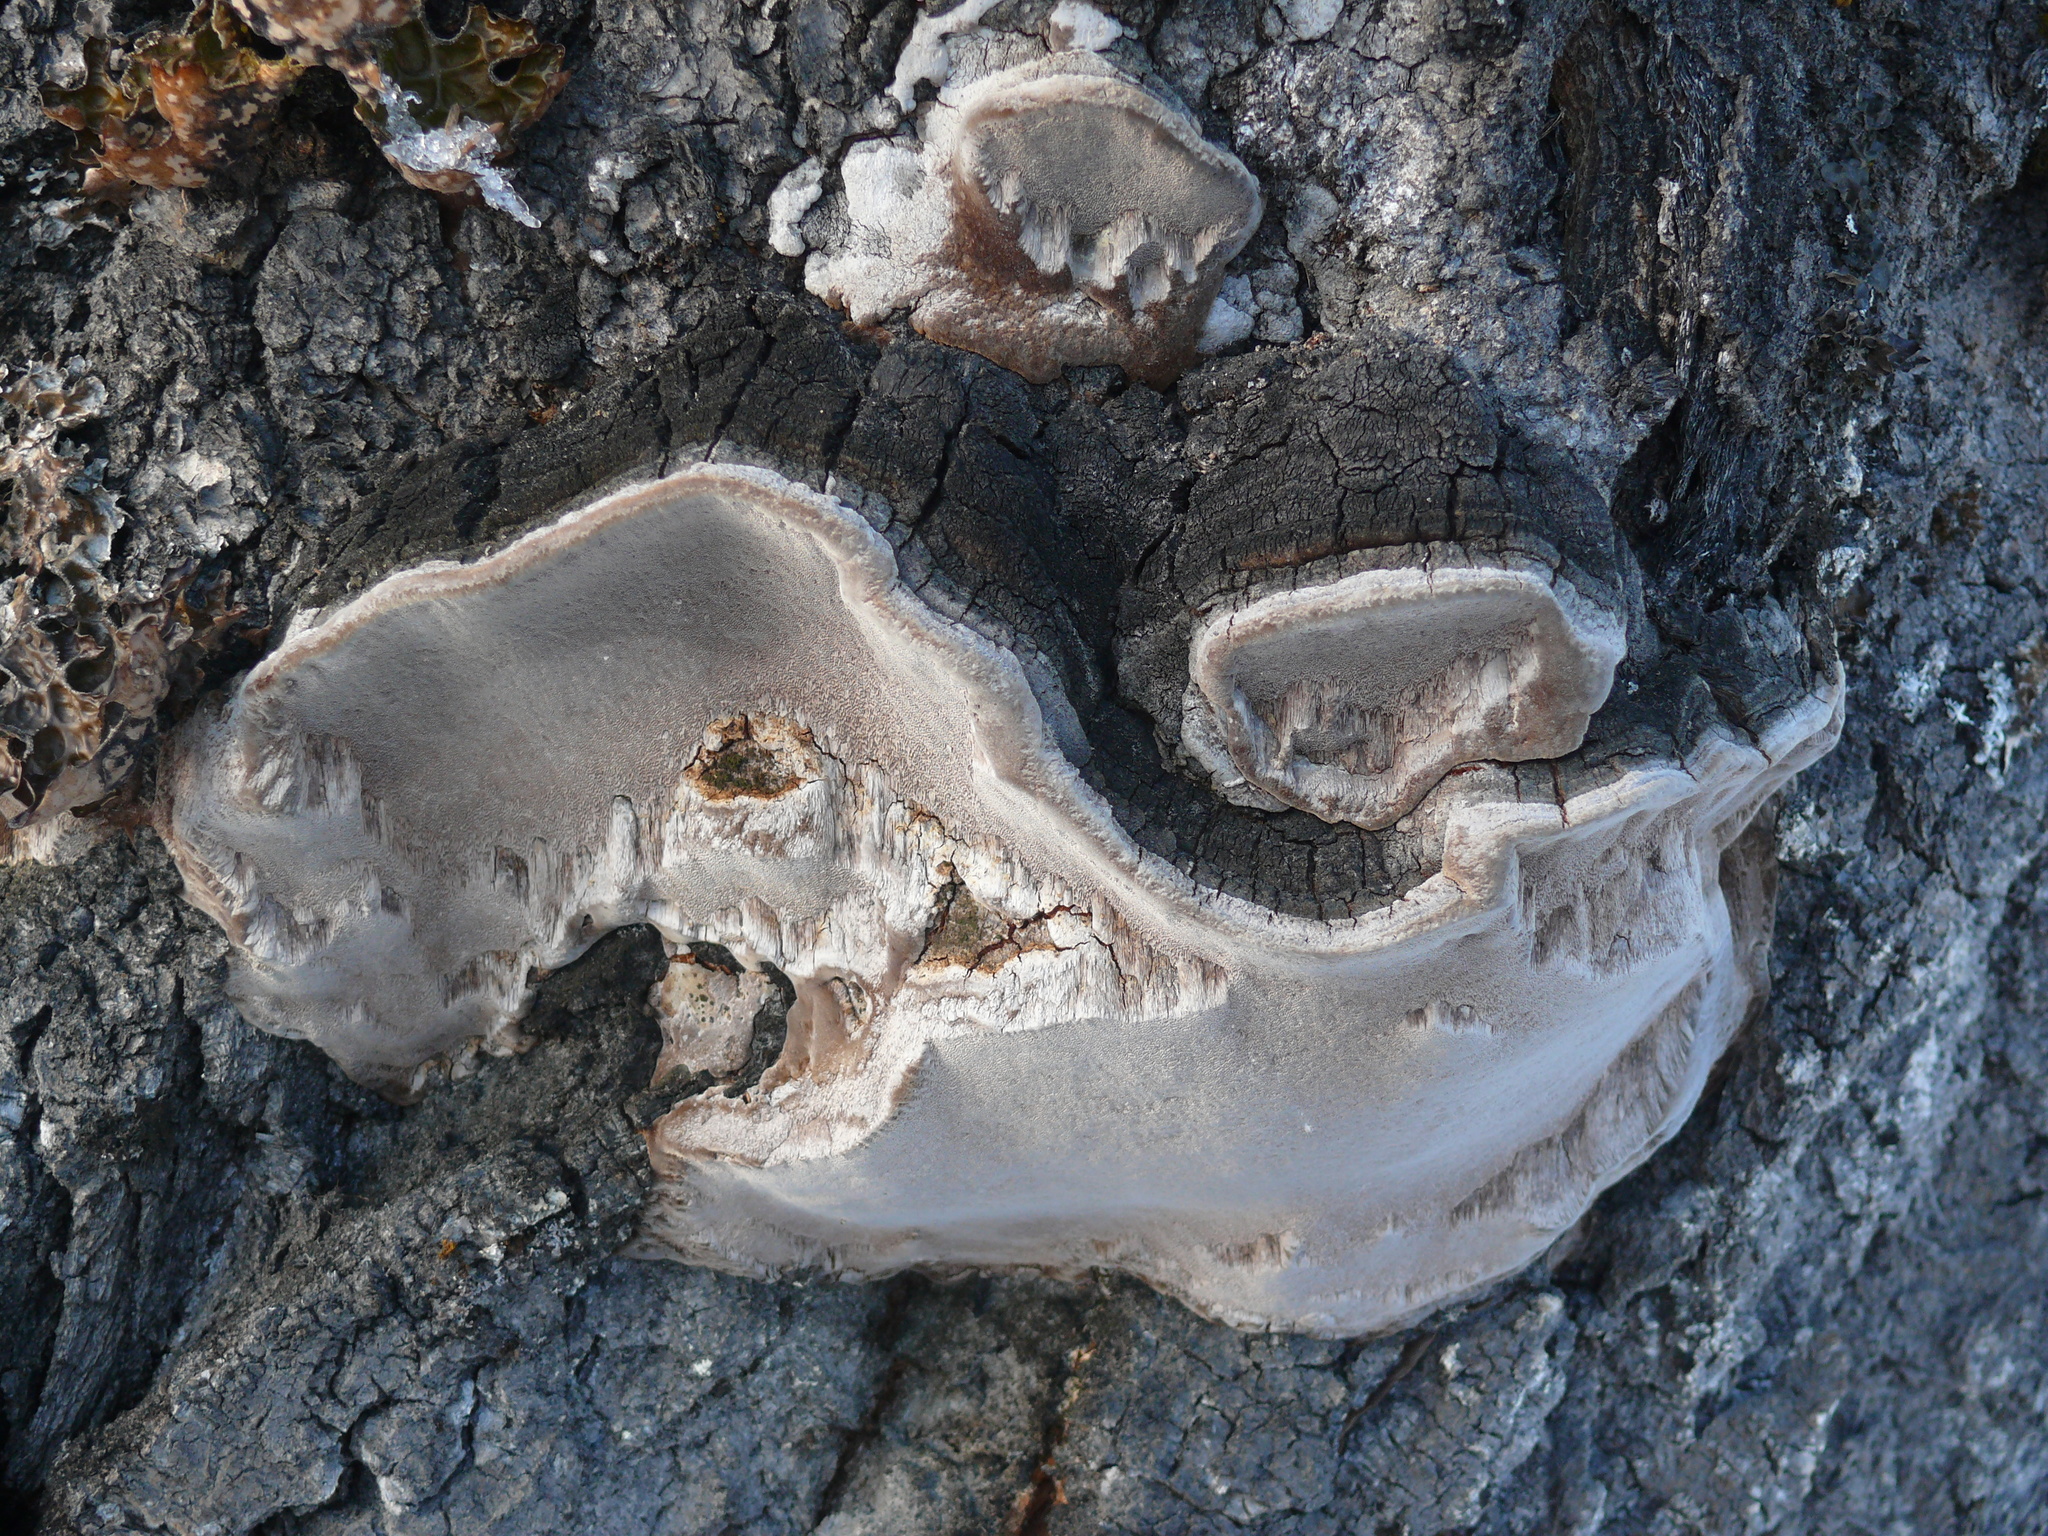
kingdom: Fungi
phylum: Basidiomycota
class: Agaricomycetes
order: Hymenochaetales
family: Hymenochaetaceae
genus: Phellinus
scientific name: Phellinus tremulae
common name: Aspen bracket
